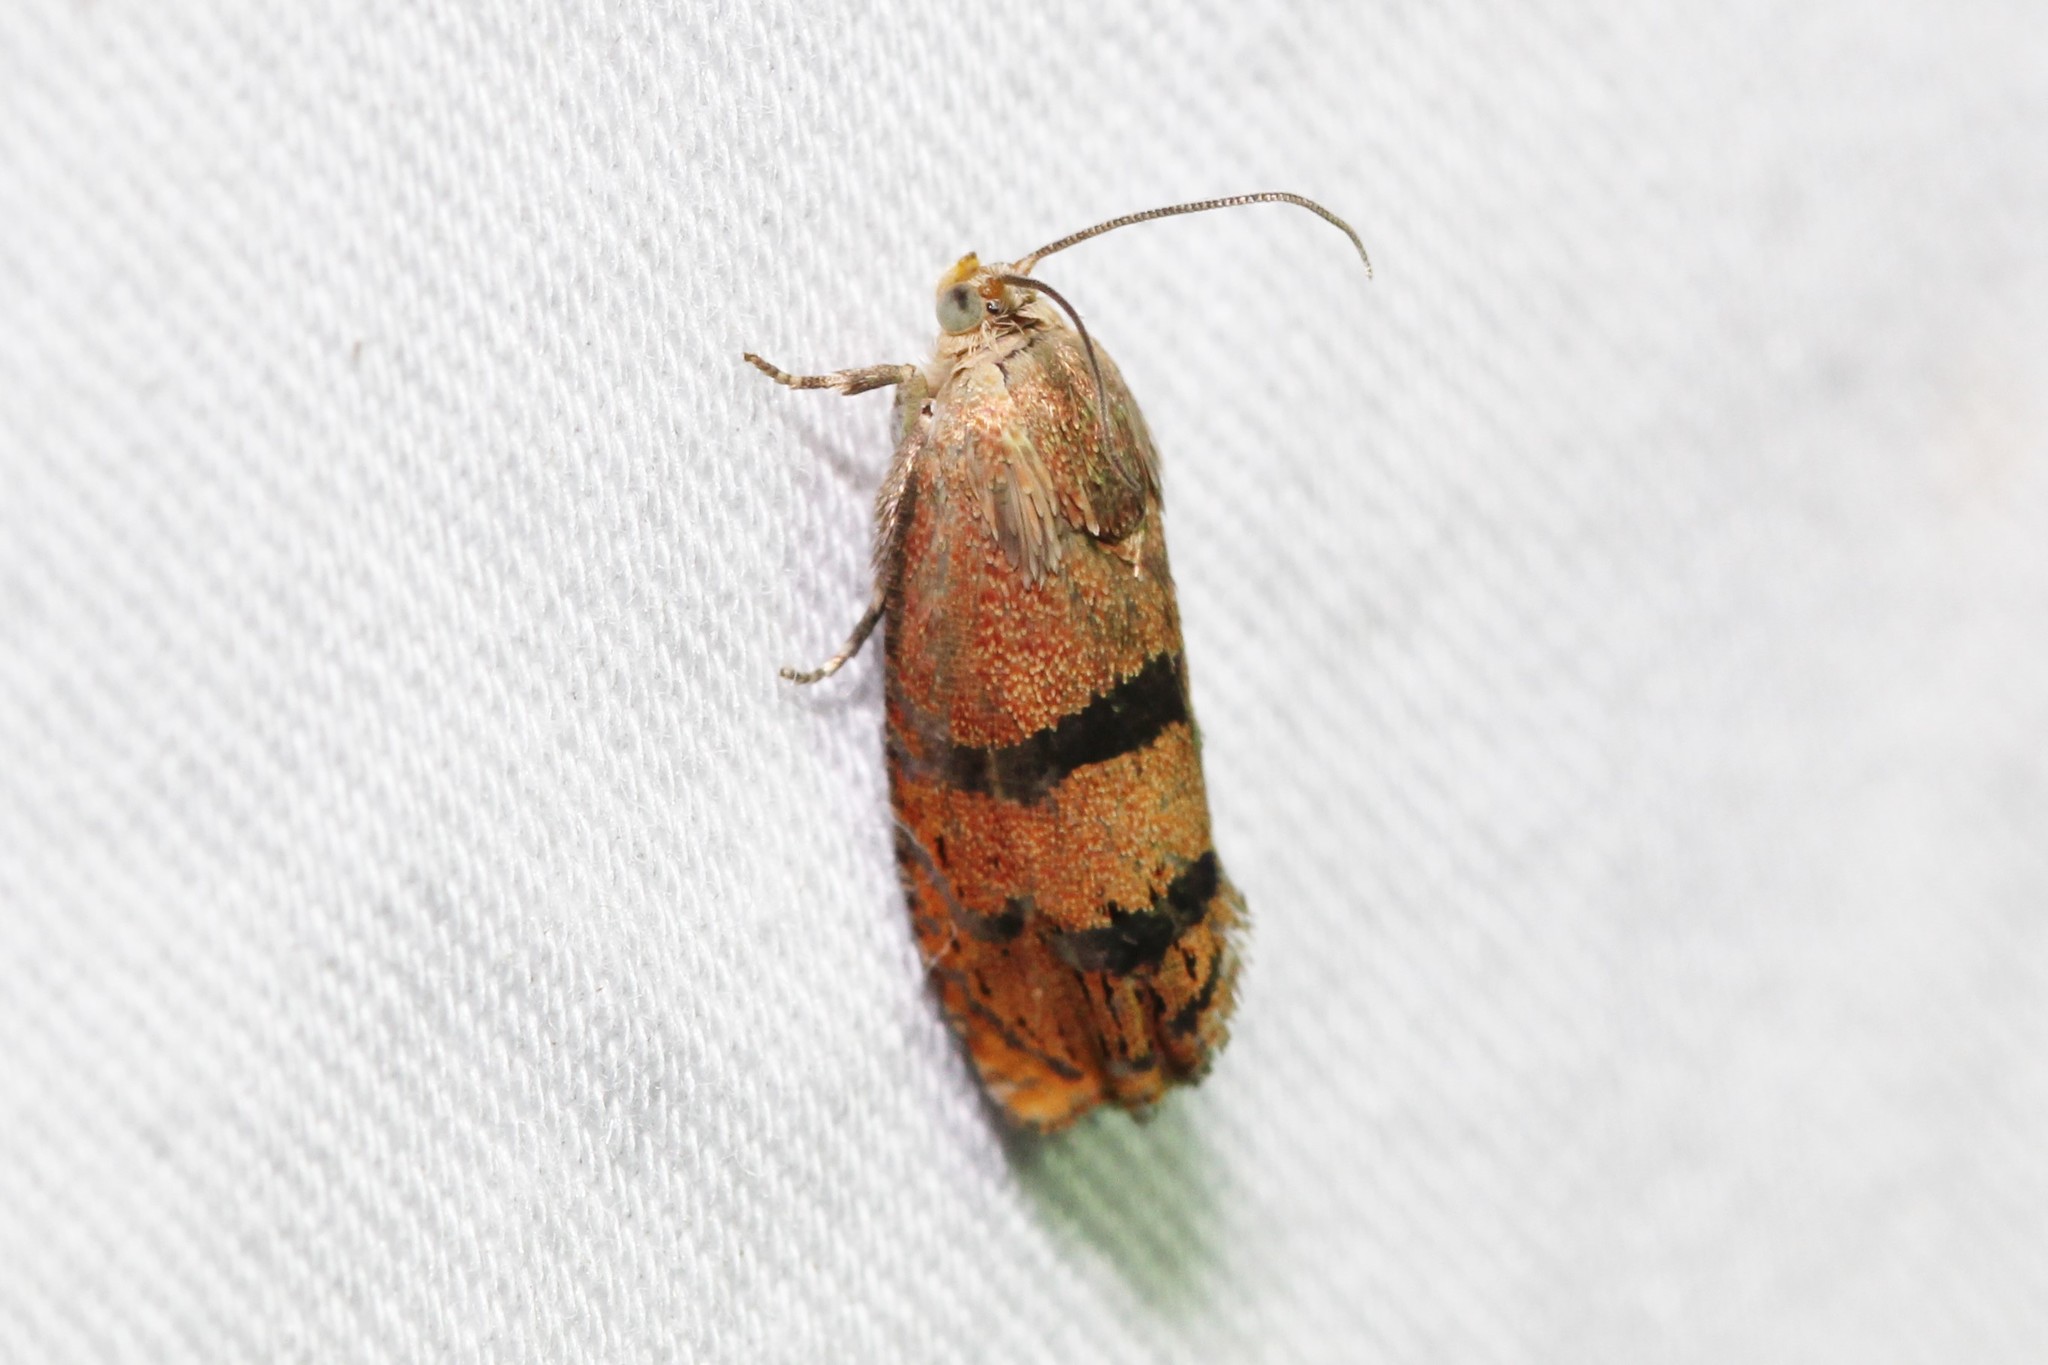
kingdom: Animalia
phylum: Arthropoda
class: Insecta
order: Lepidoptera
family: Tortricidae
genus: Cydia
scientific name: Cydia latiferreana
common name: Filbertworm moth
